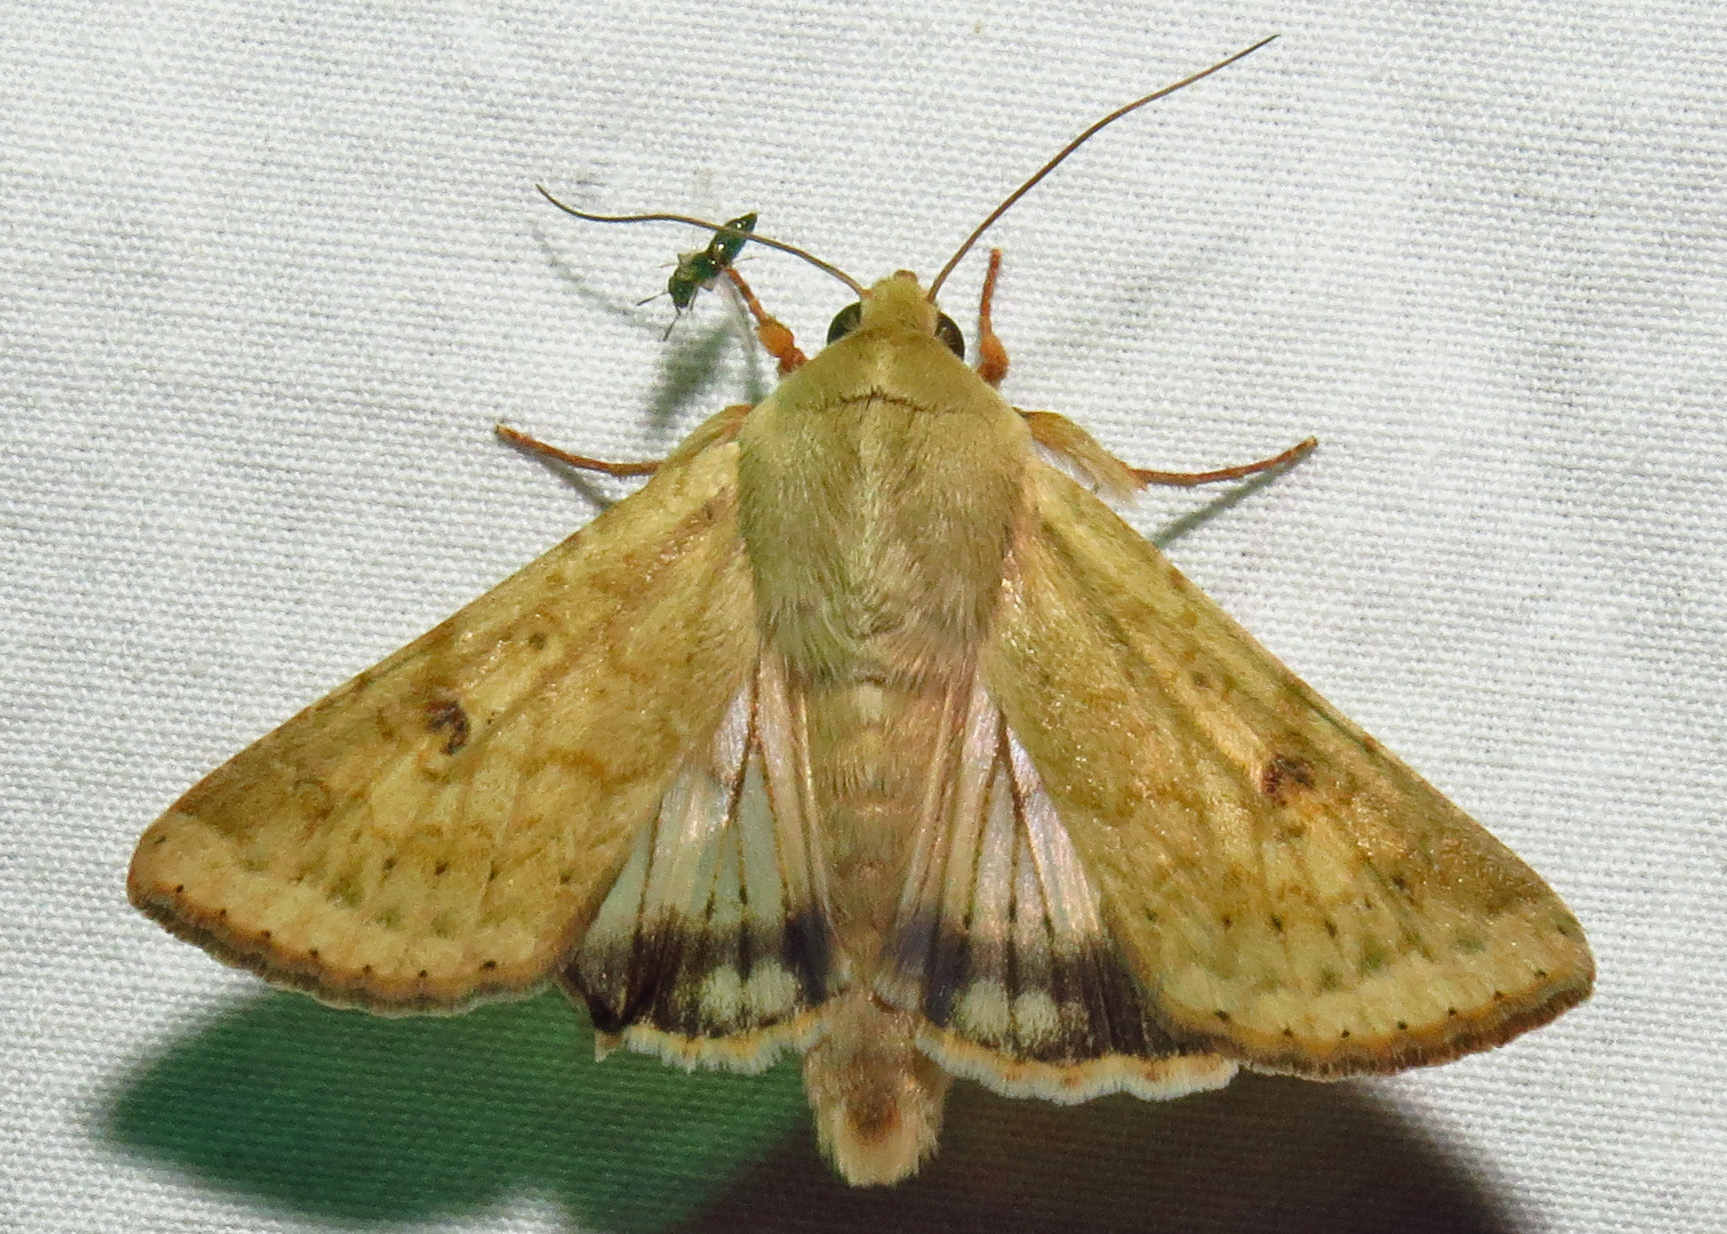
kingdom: Animalia
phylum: Arthropoda
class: Insecta
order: Lepidoptera
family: Noctuidae
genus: Helicoverpa
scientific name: Helicoverpa zea
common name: Bollworm
